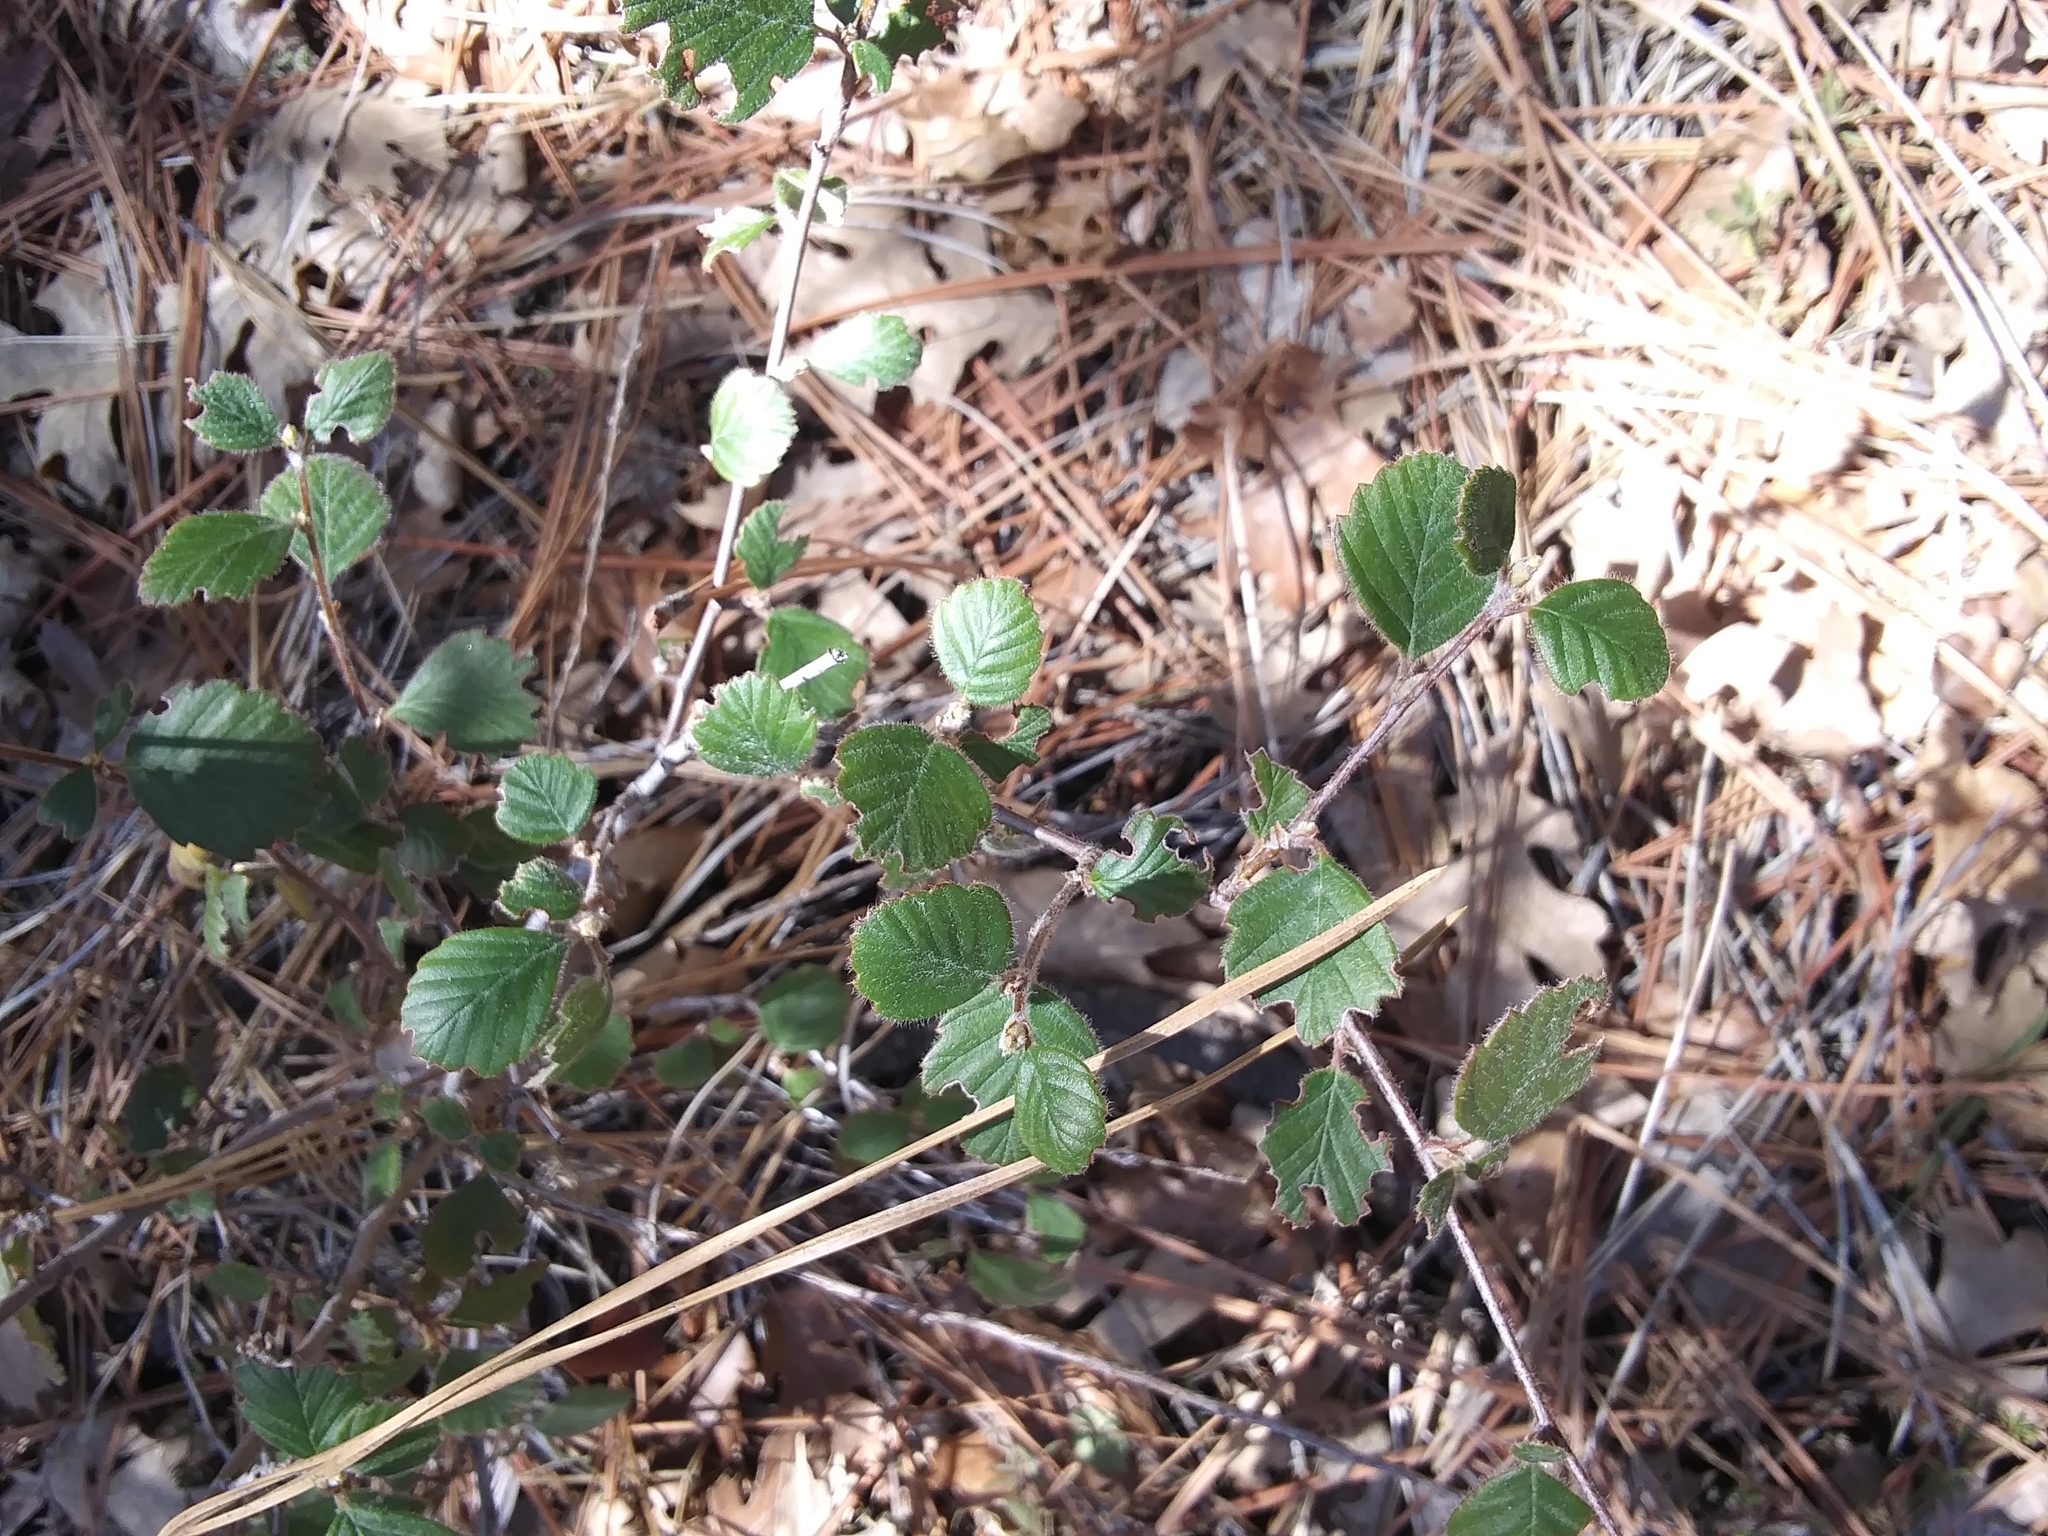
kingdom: Plantae
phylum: Tracheophyta
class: Magnoliopsida
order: Rosales
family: Rosaceae
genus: Cercocarpus
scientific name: Cercocarpus betuloides
